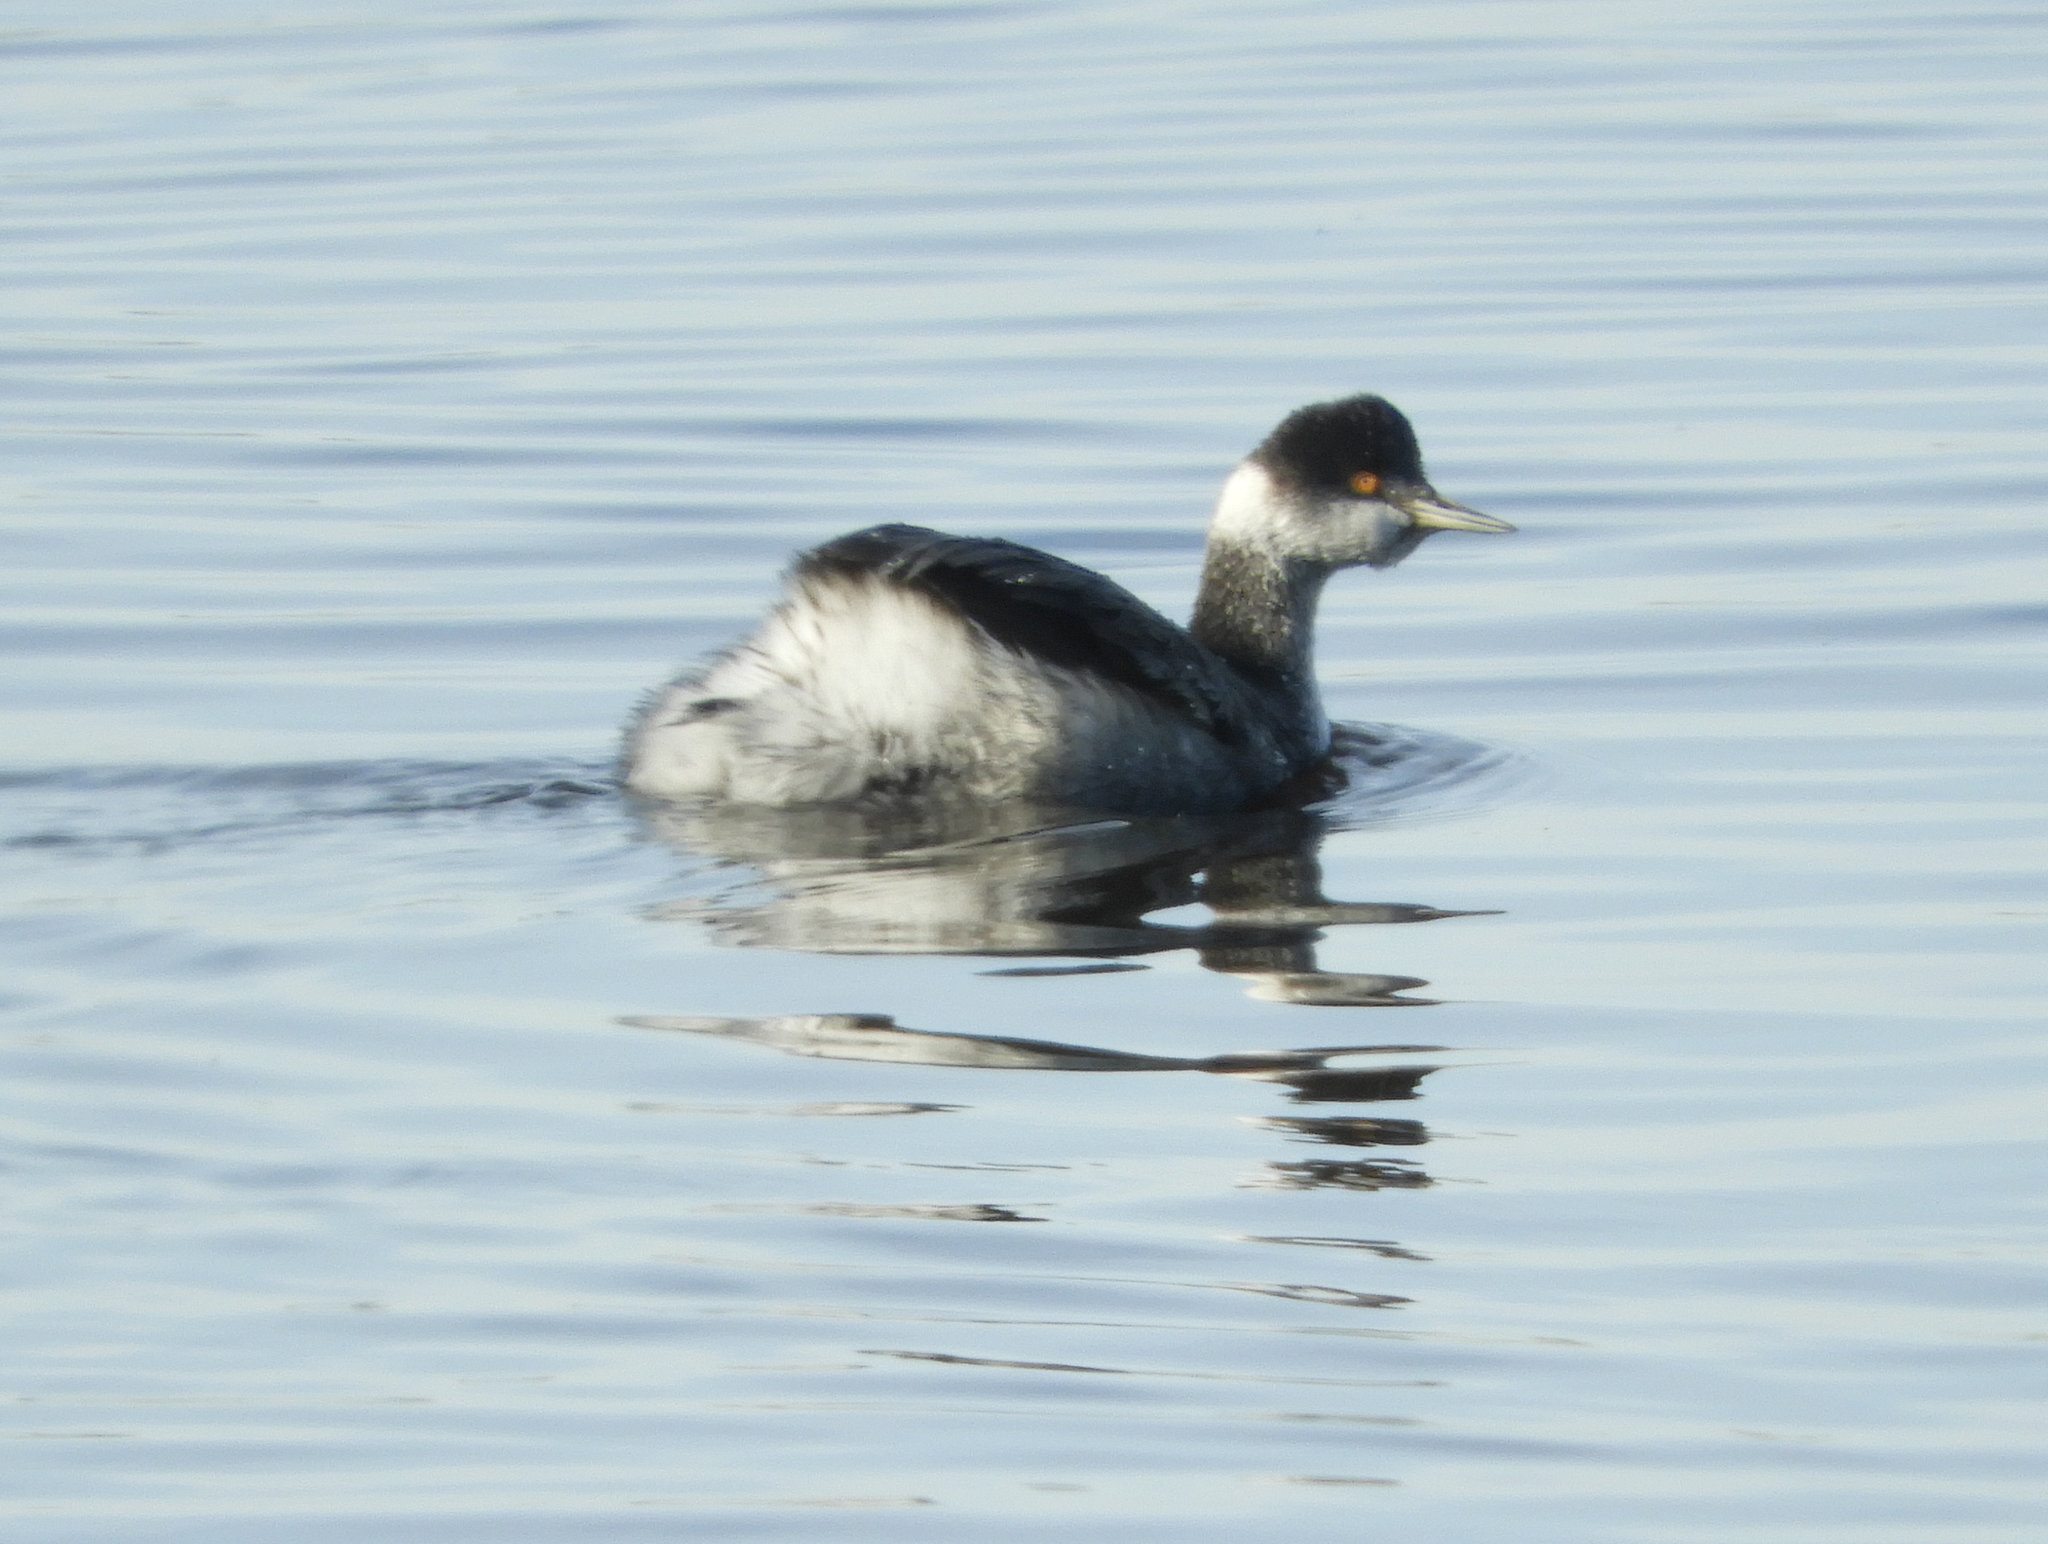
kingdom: Animalia
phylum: Chordata
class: Aves
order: Podicipediformes
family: Podicipedidae
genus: Podiceps
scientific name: Podiceps nigricollis
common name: Black-necked grebe
